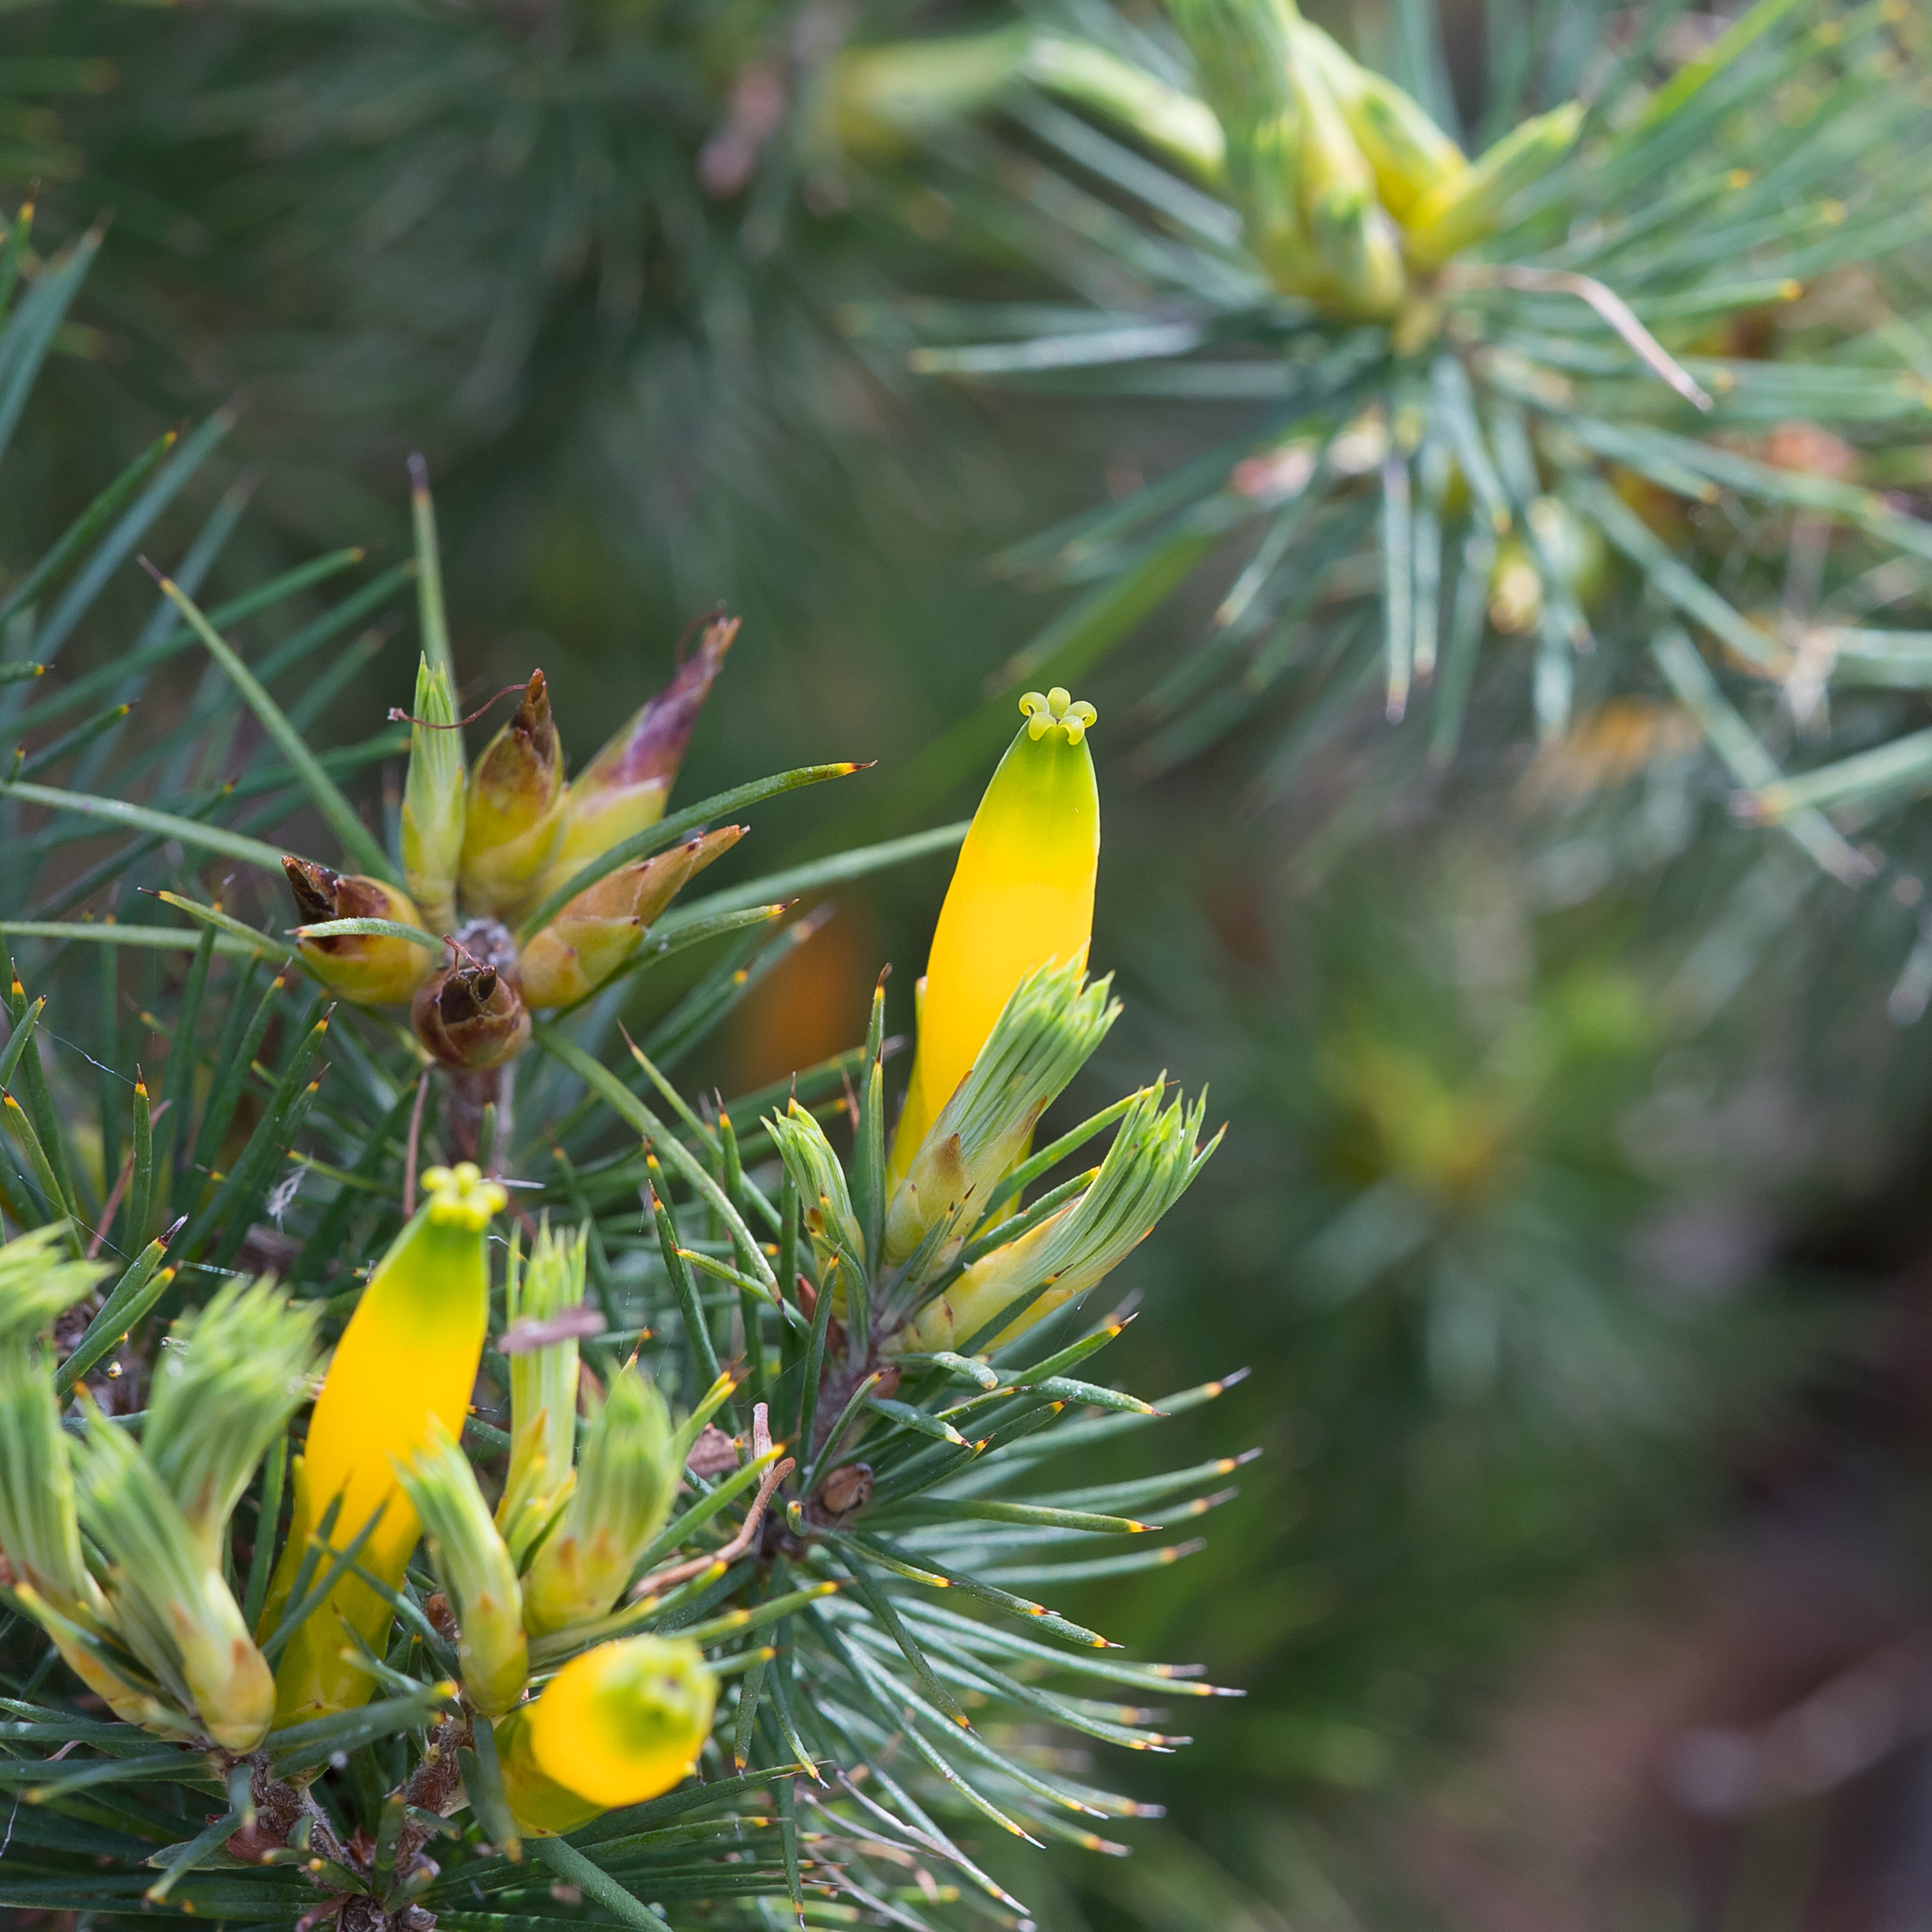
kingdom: Plantae
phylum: Tracheophyta
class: Magnoliopsida
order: Ericales
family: Ericaceae
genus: Stenanthera
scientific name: Stenanthera pinifolia
